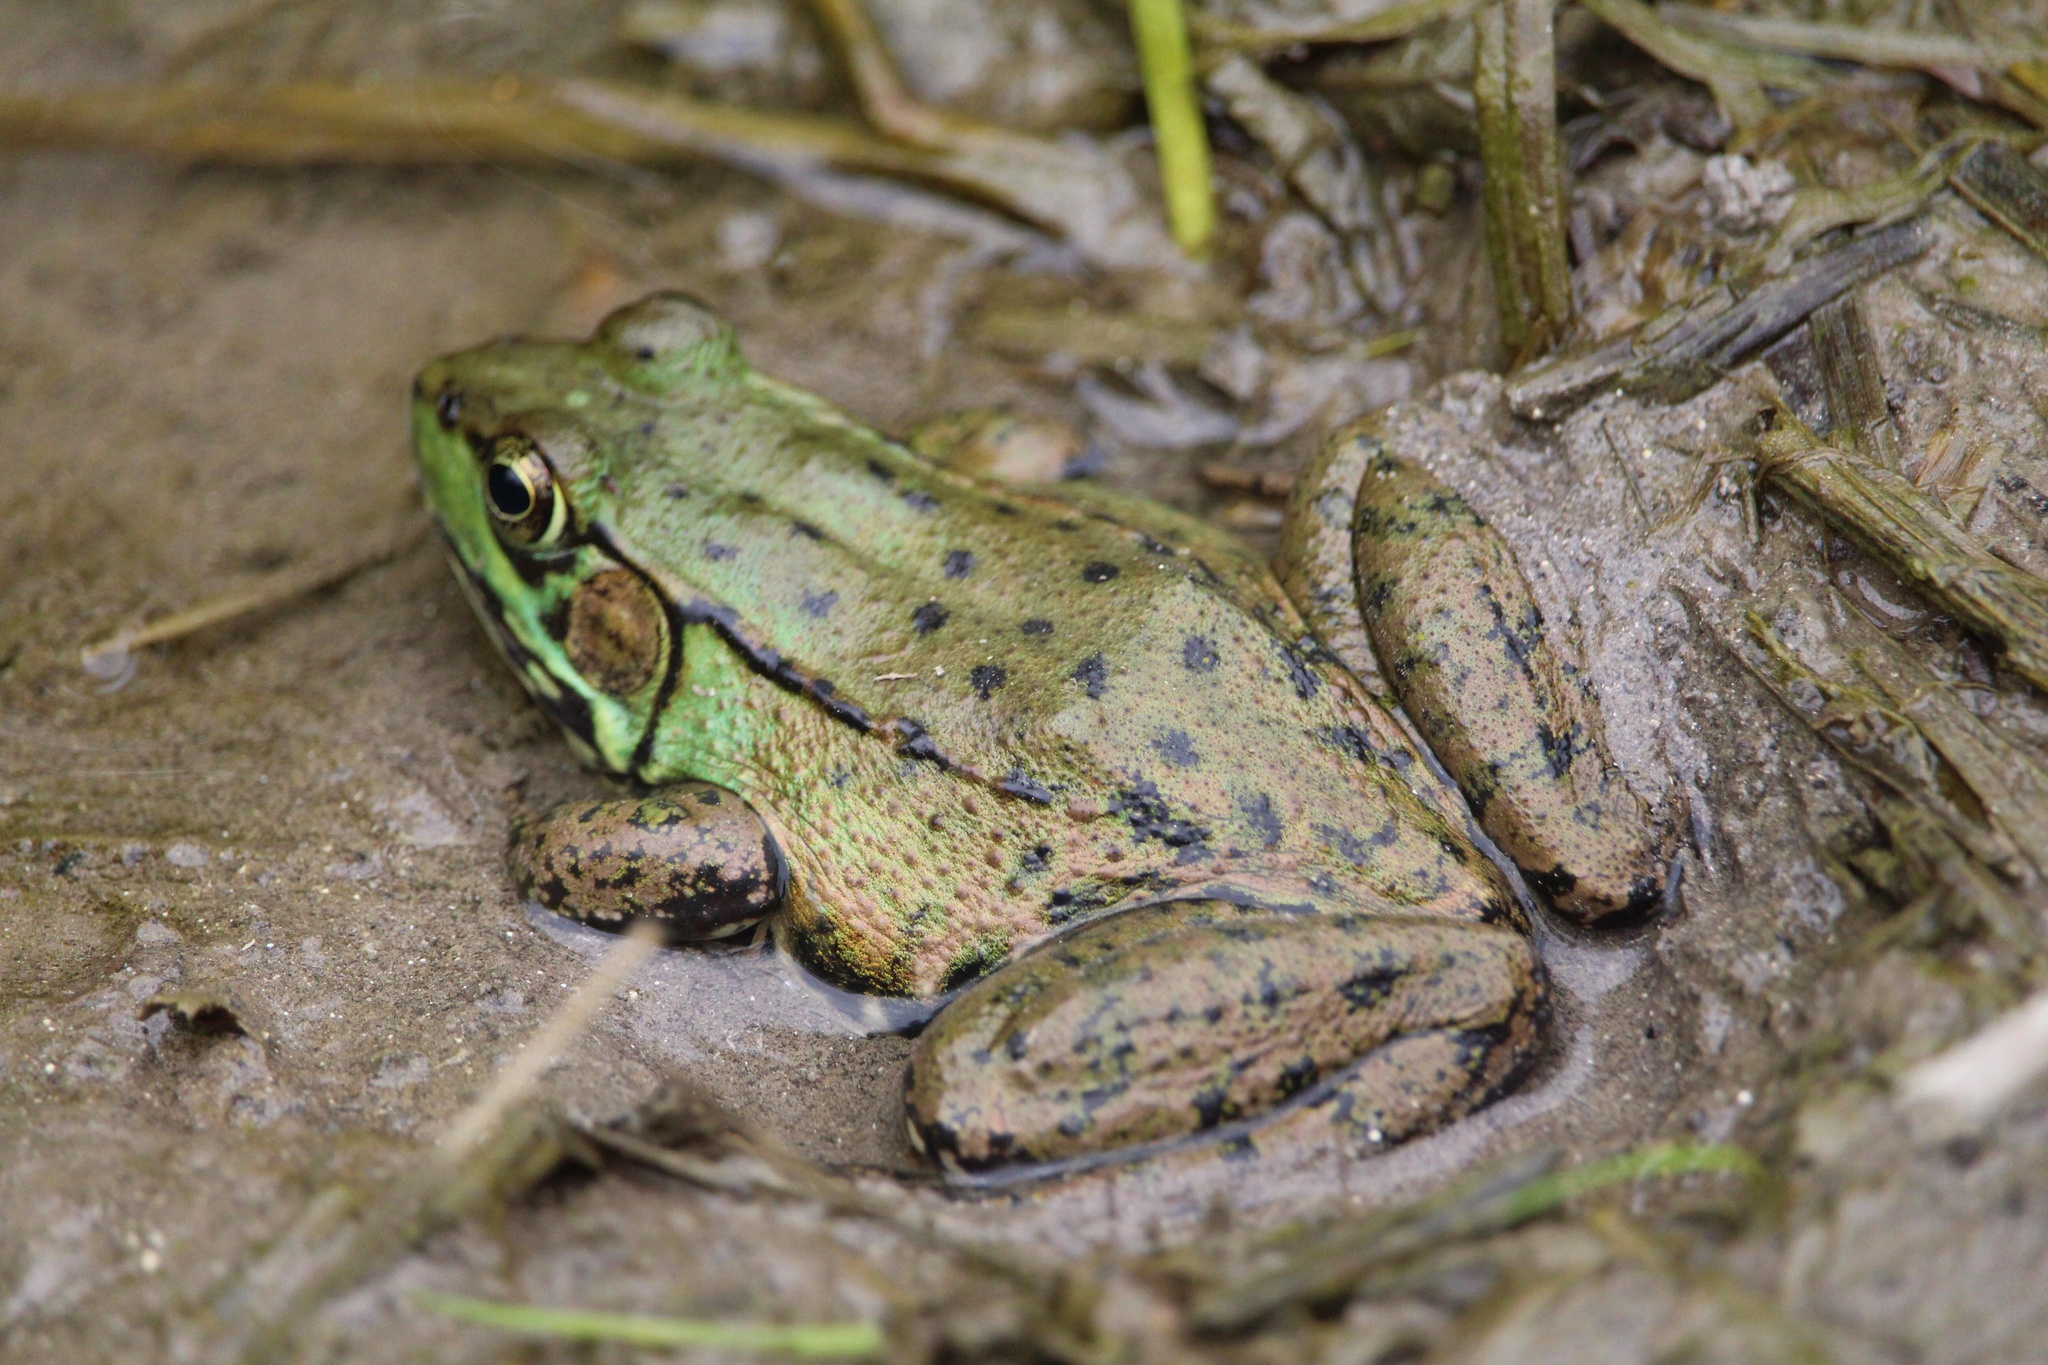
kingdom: Animalia
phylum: Chordata
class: Amphibia
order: Anura
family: Ranidae
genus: Lithobates
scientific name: Lithobates clamitans
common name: Green frog
